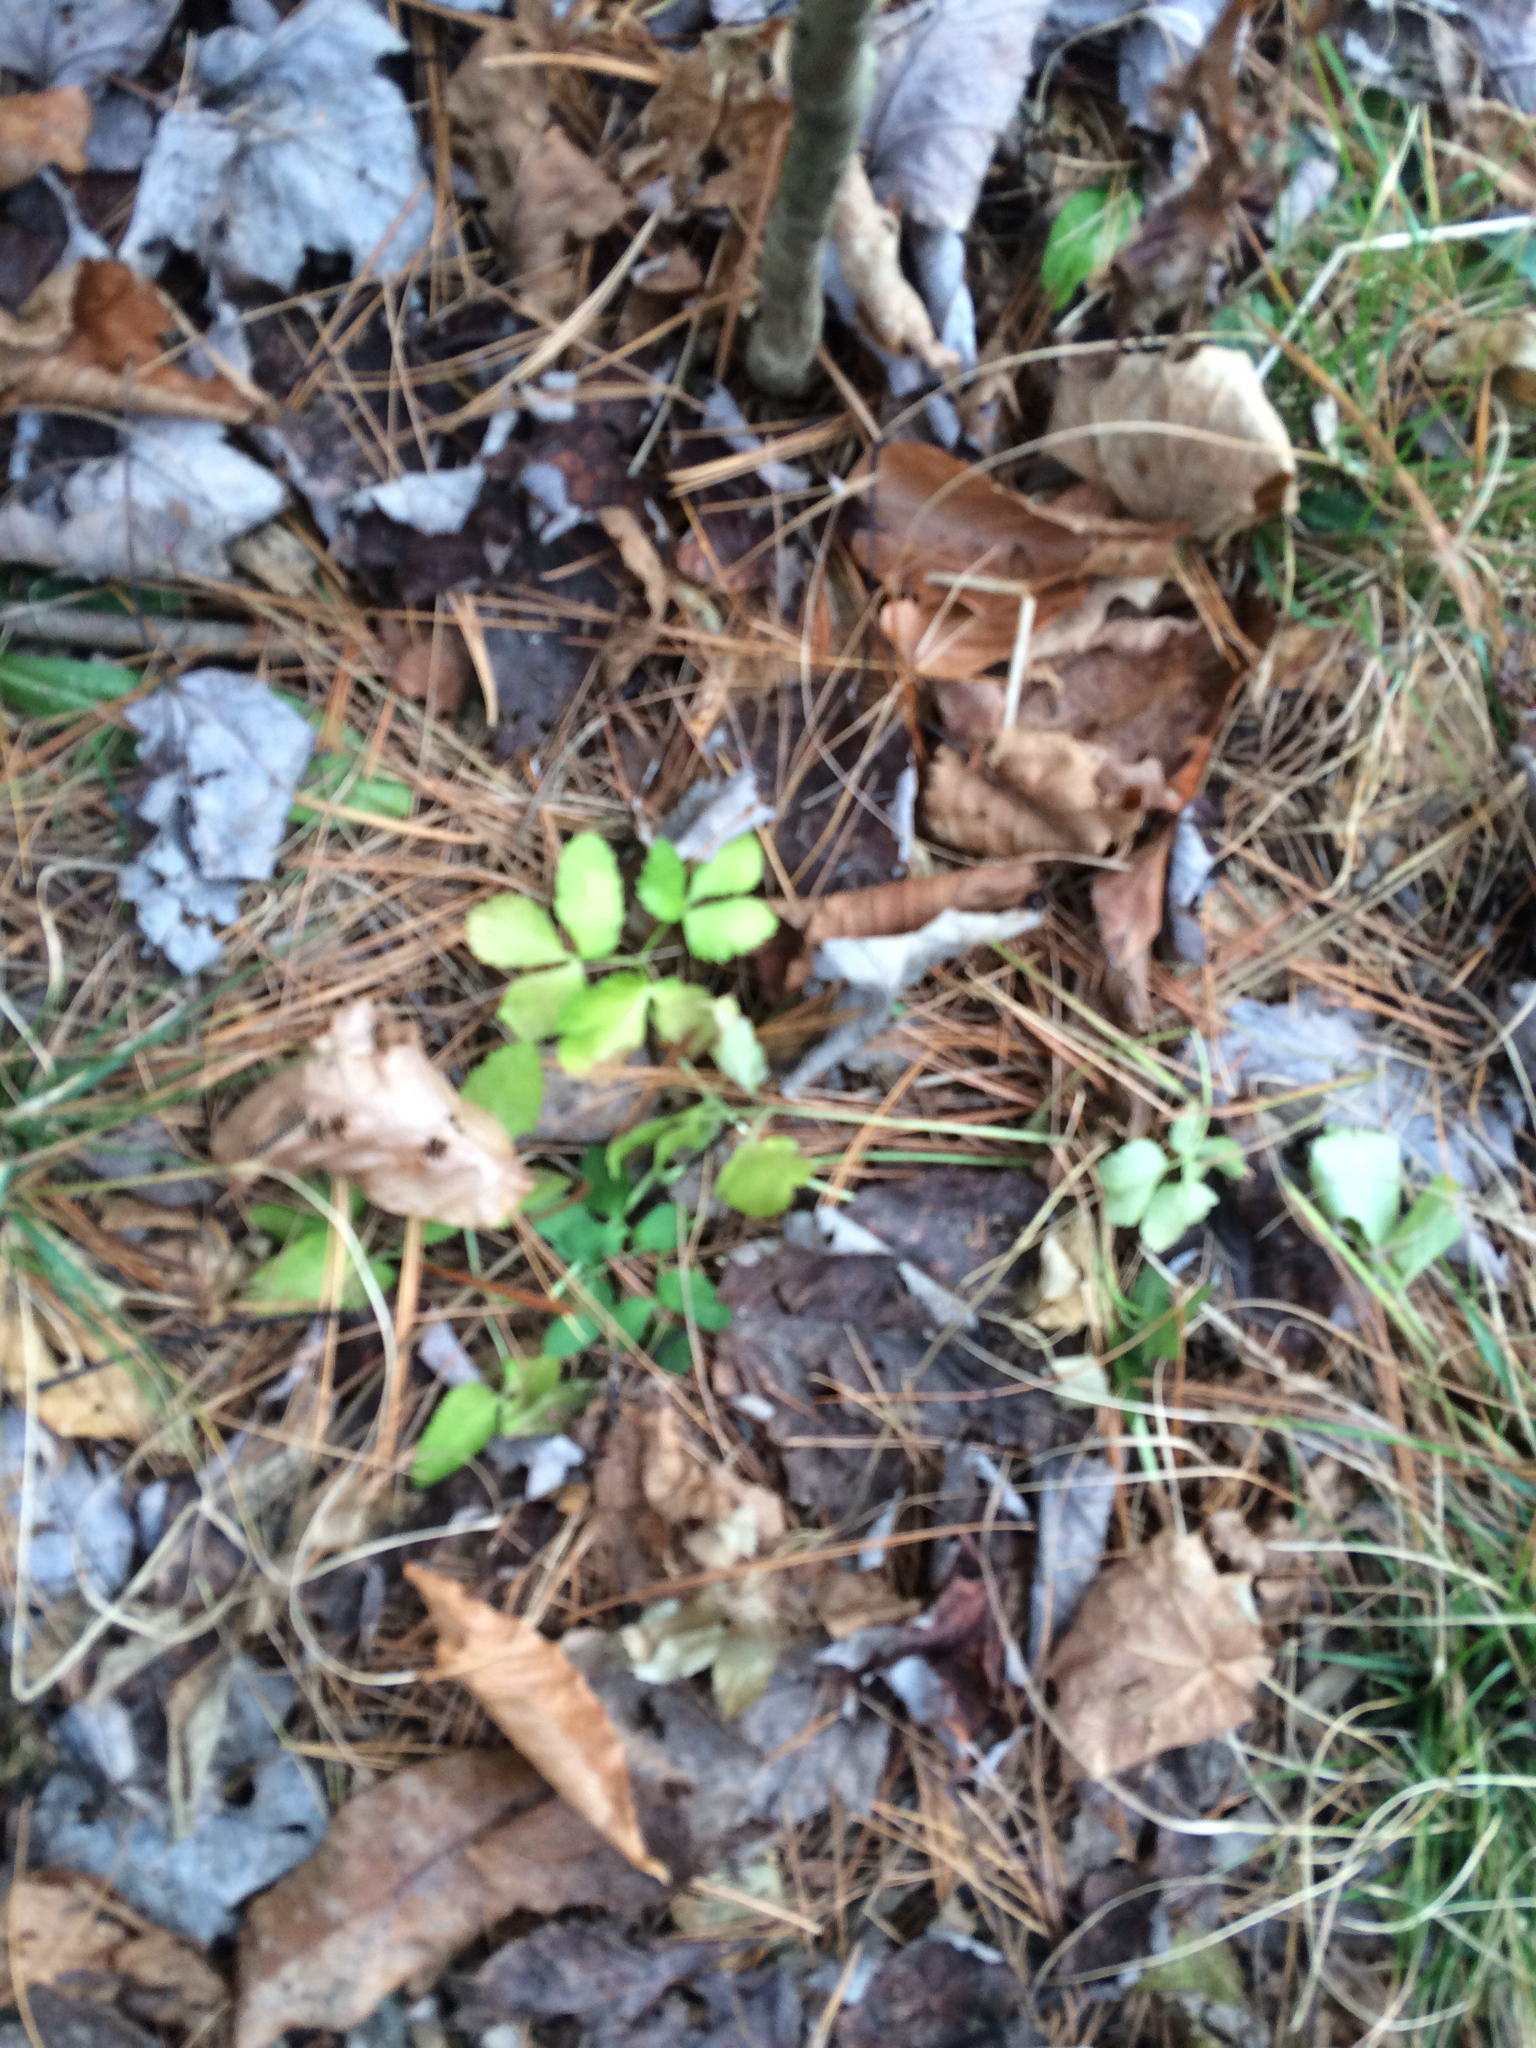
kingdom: Plantae
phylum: Tracheophyta
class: Magnoliopsida
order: Apiales
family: Apiaceae
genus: Aegopodium
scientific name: Aegopodium podagraria
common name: Ground-elder
